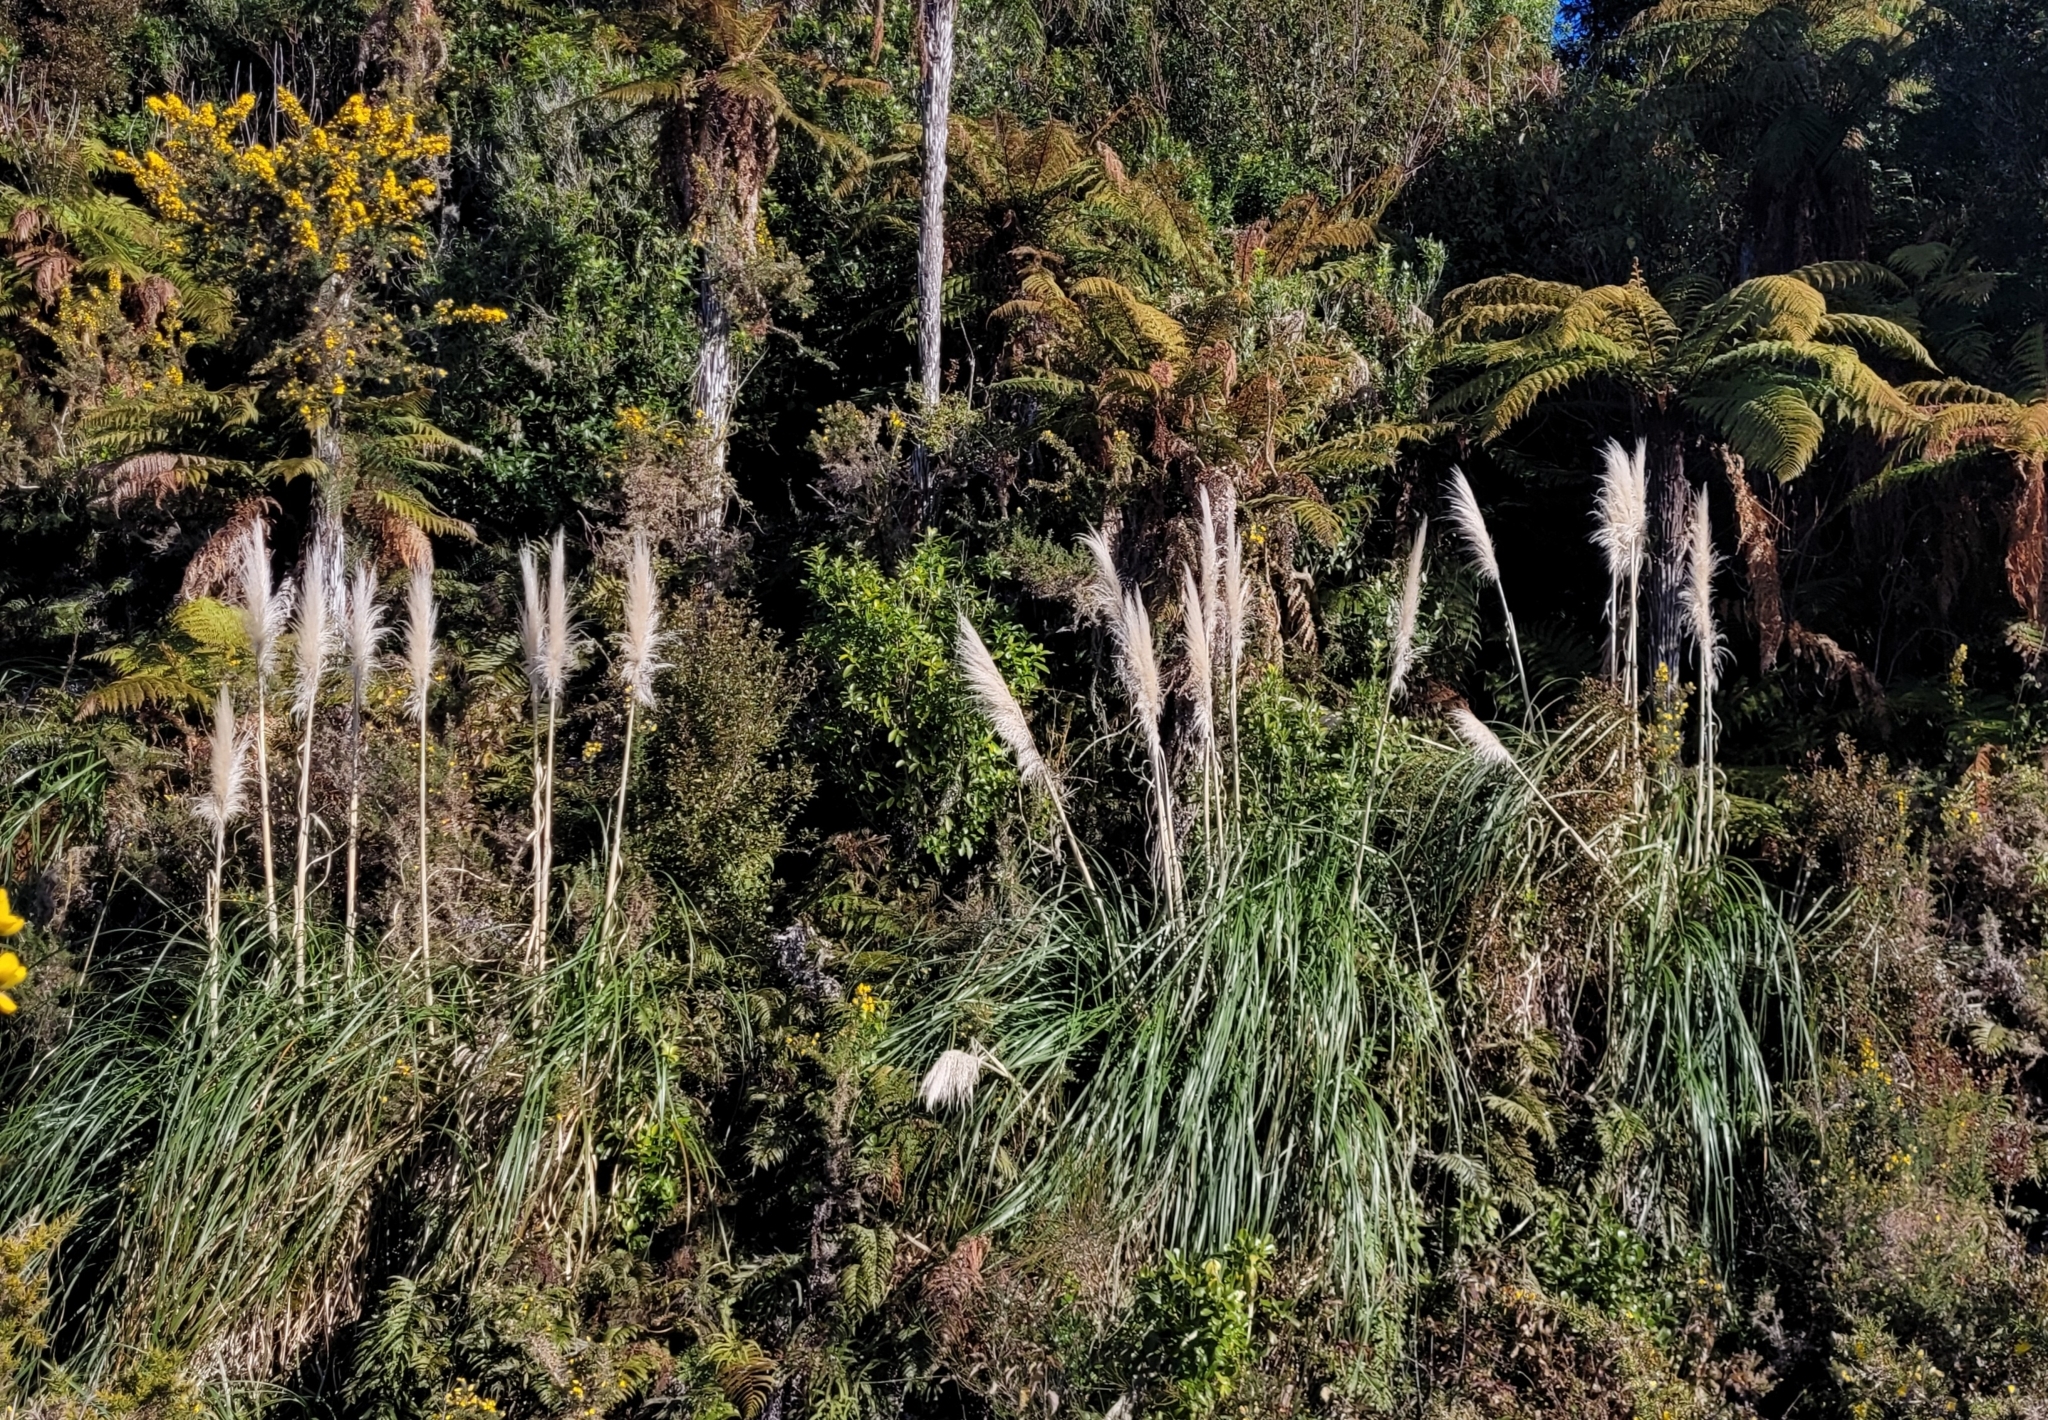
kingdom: Plantae
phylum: Tracheophyta
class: Liliopsida
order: Poales
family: Poaceae
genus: Cortaderia
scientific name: Cortaderia jubata
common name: Purple pampas grass
